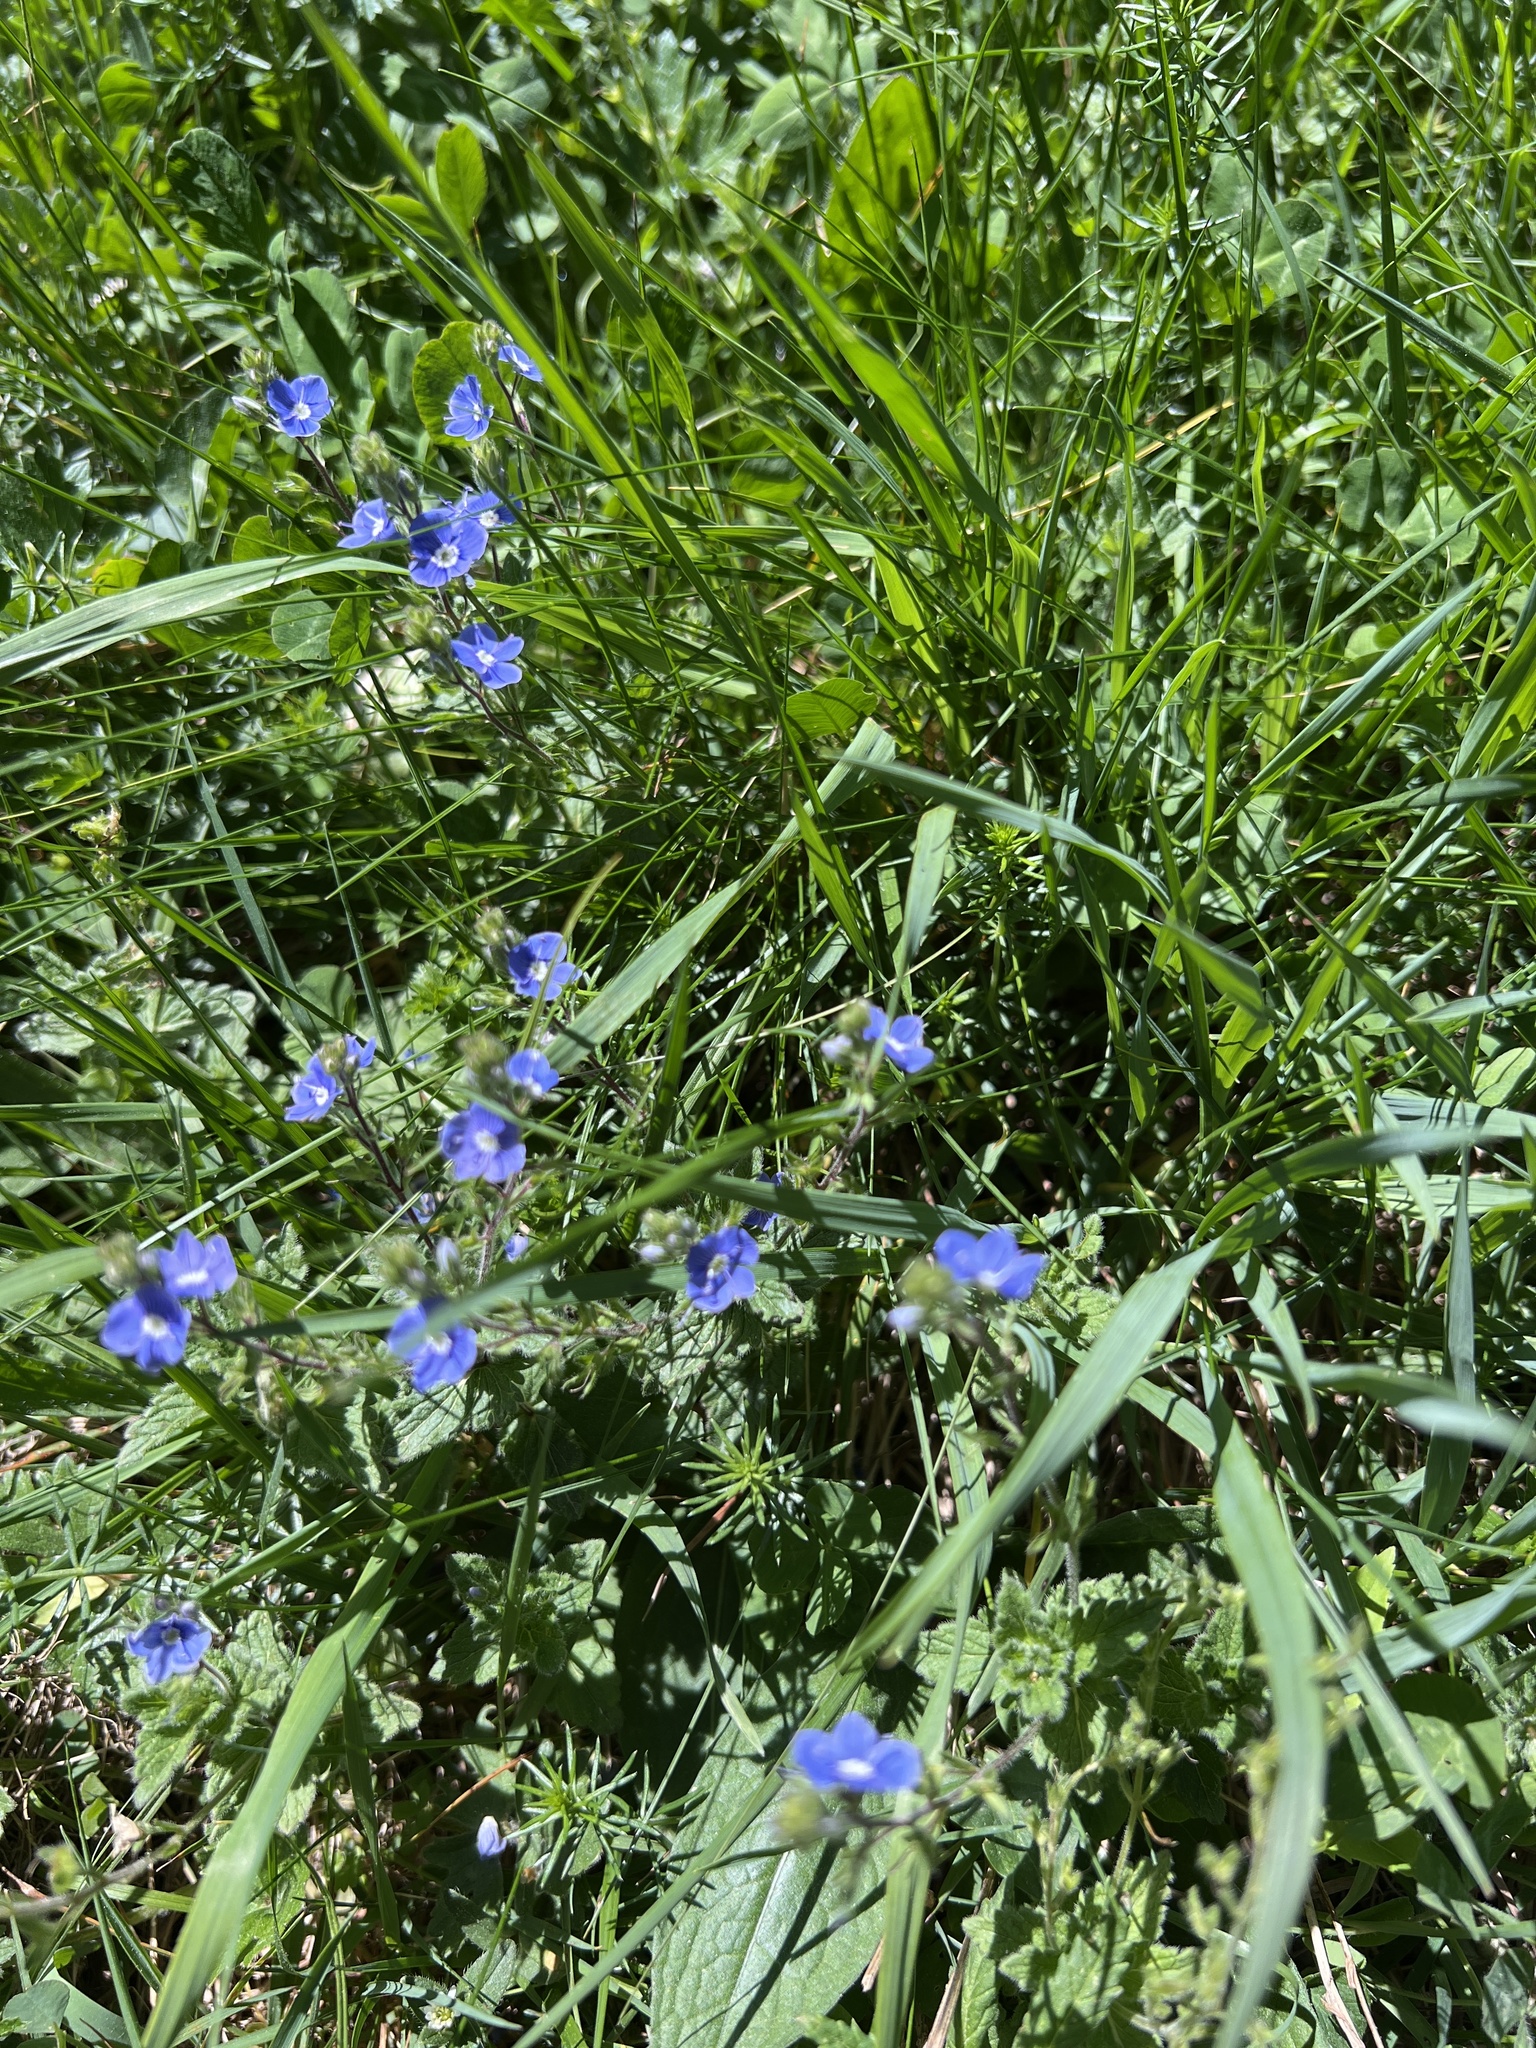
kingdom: Plantae
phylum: Tracheophyta
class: Magnoliopsida
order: Lamiales
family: Plantaginaceae
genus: Veronica
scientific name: Veronica chamaedrys
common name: Germander speedwell
